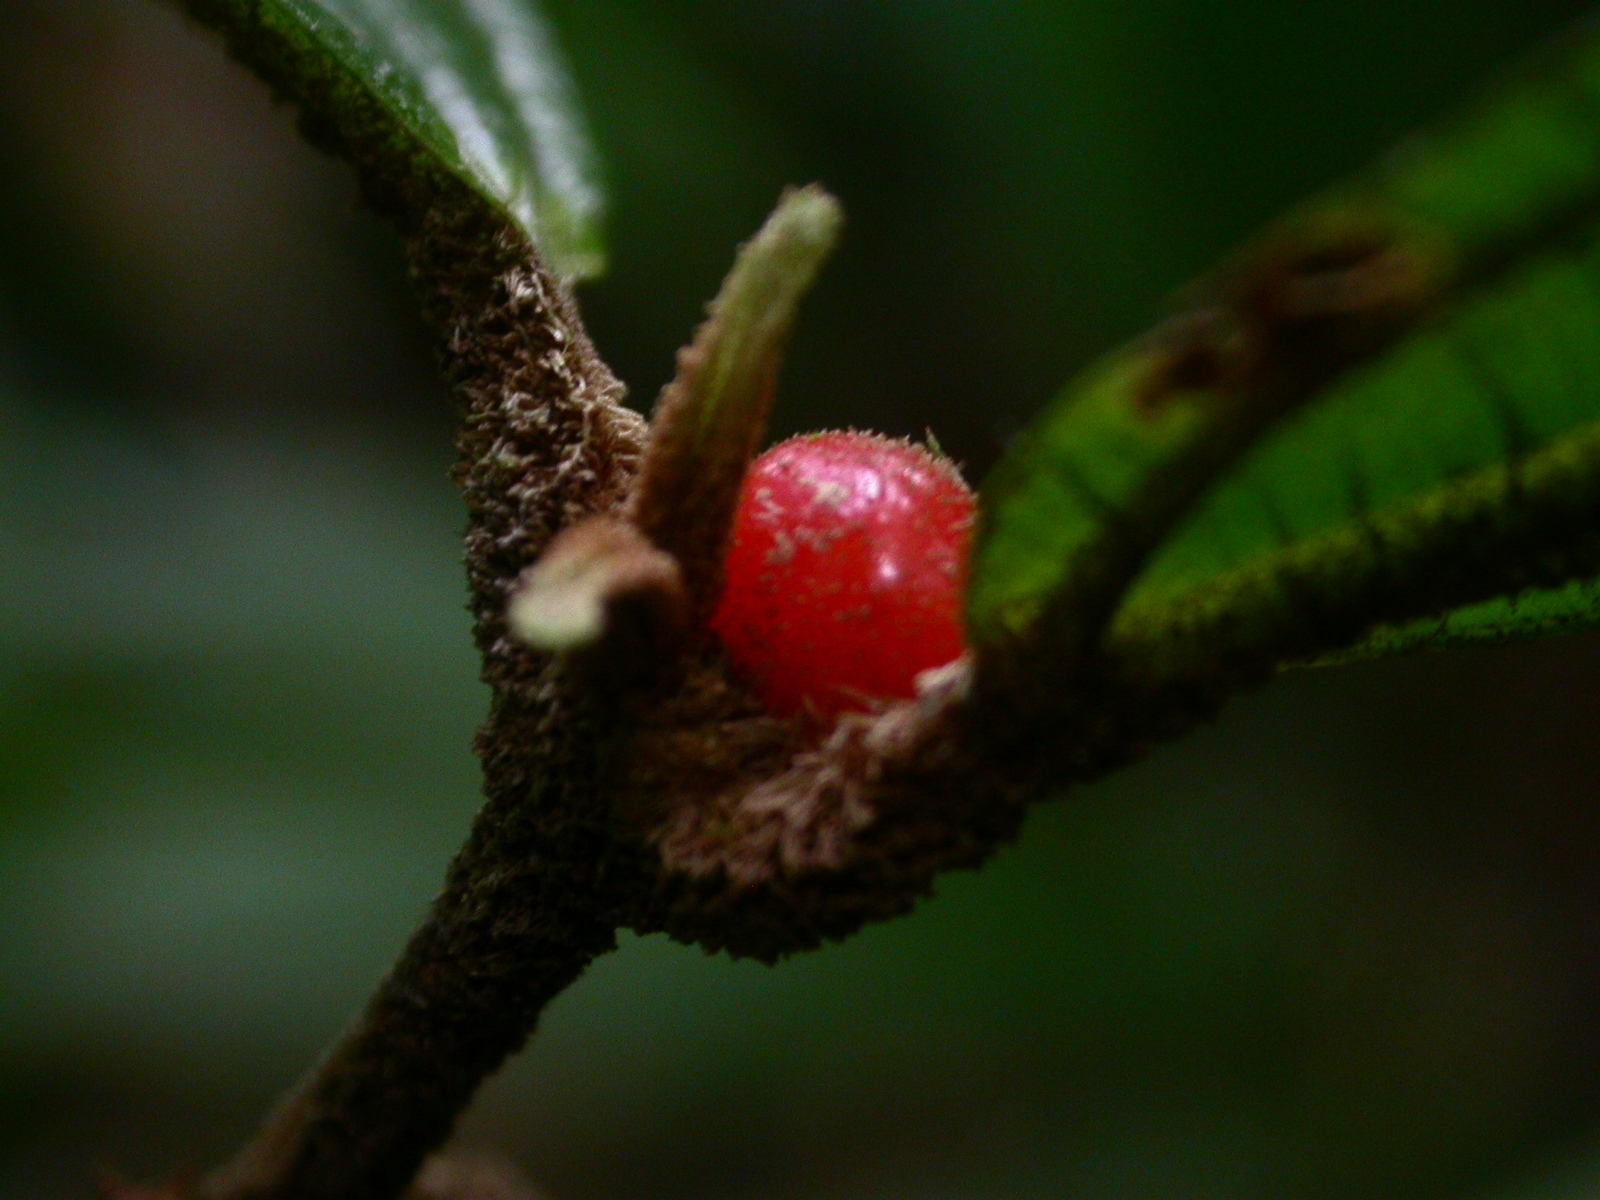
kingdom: Plantae
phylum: Tracheophyta
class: Magnoliopsida
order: Myrtales
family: Melastomataceae
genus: Miconia
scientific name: Miconia approximata
